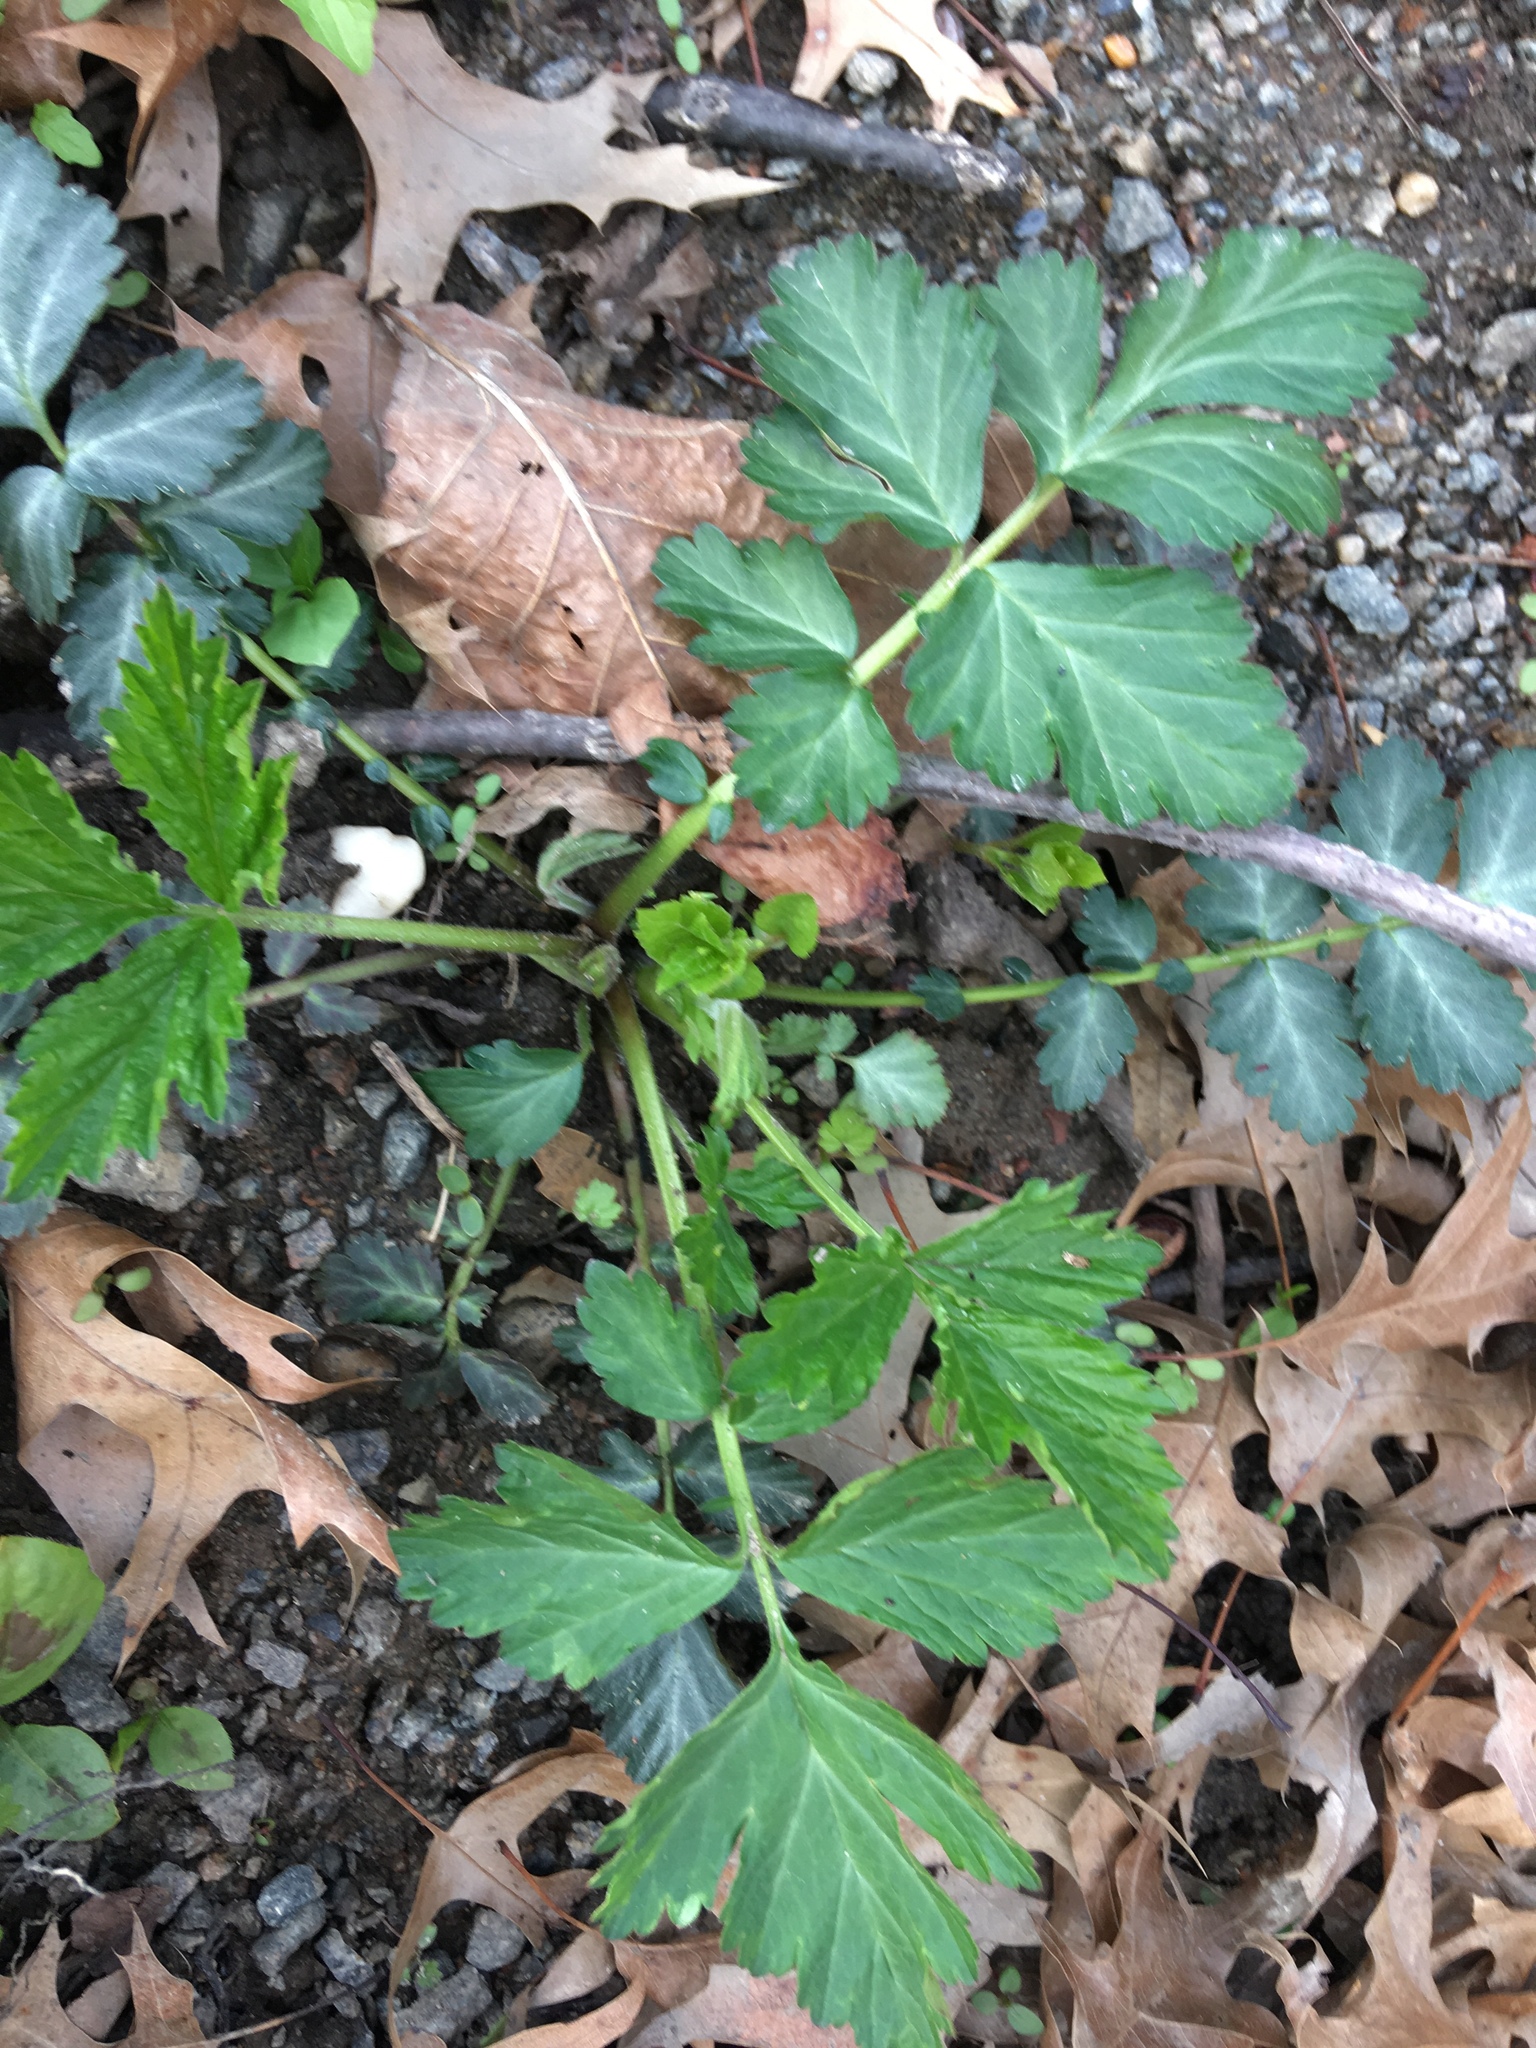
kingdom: Plantae
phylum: Tracheophyta
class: Magnoliopsida
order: Rosales
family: Rosaceae
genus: Geum
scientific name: Geum canadense
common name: White avens
